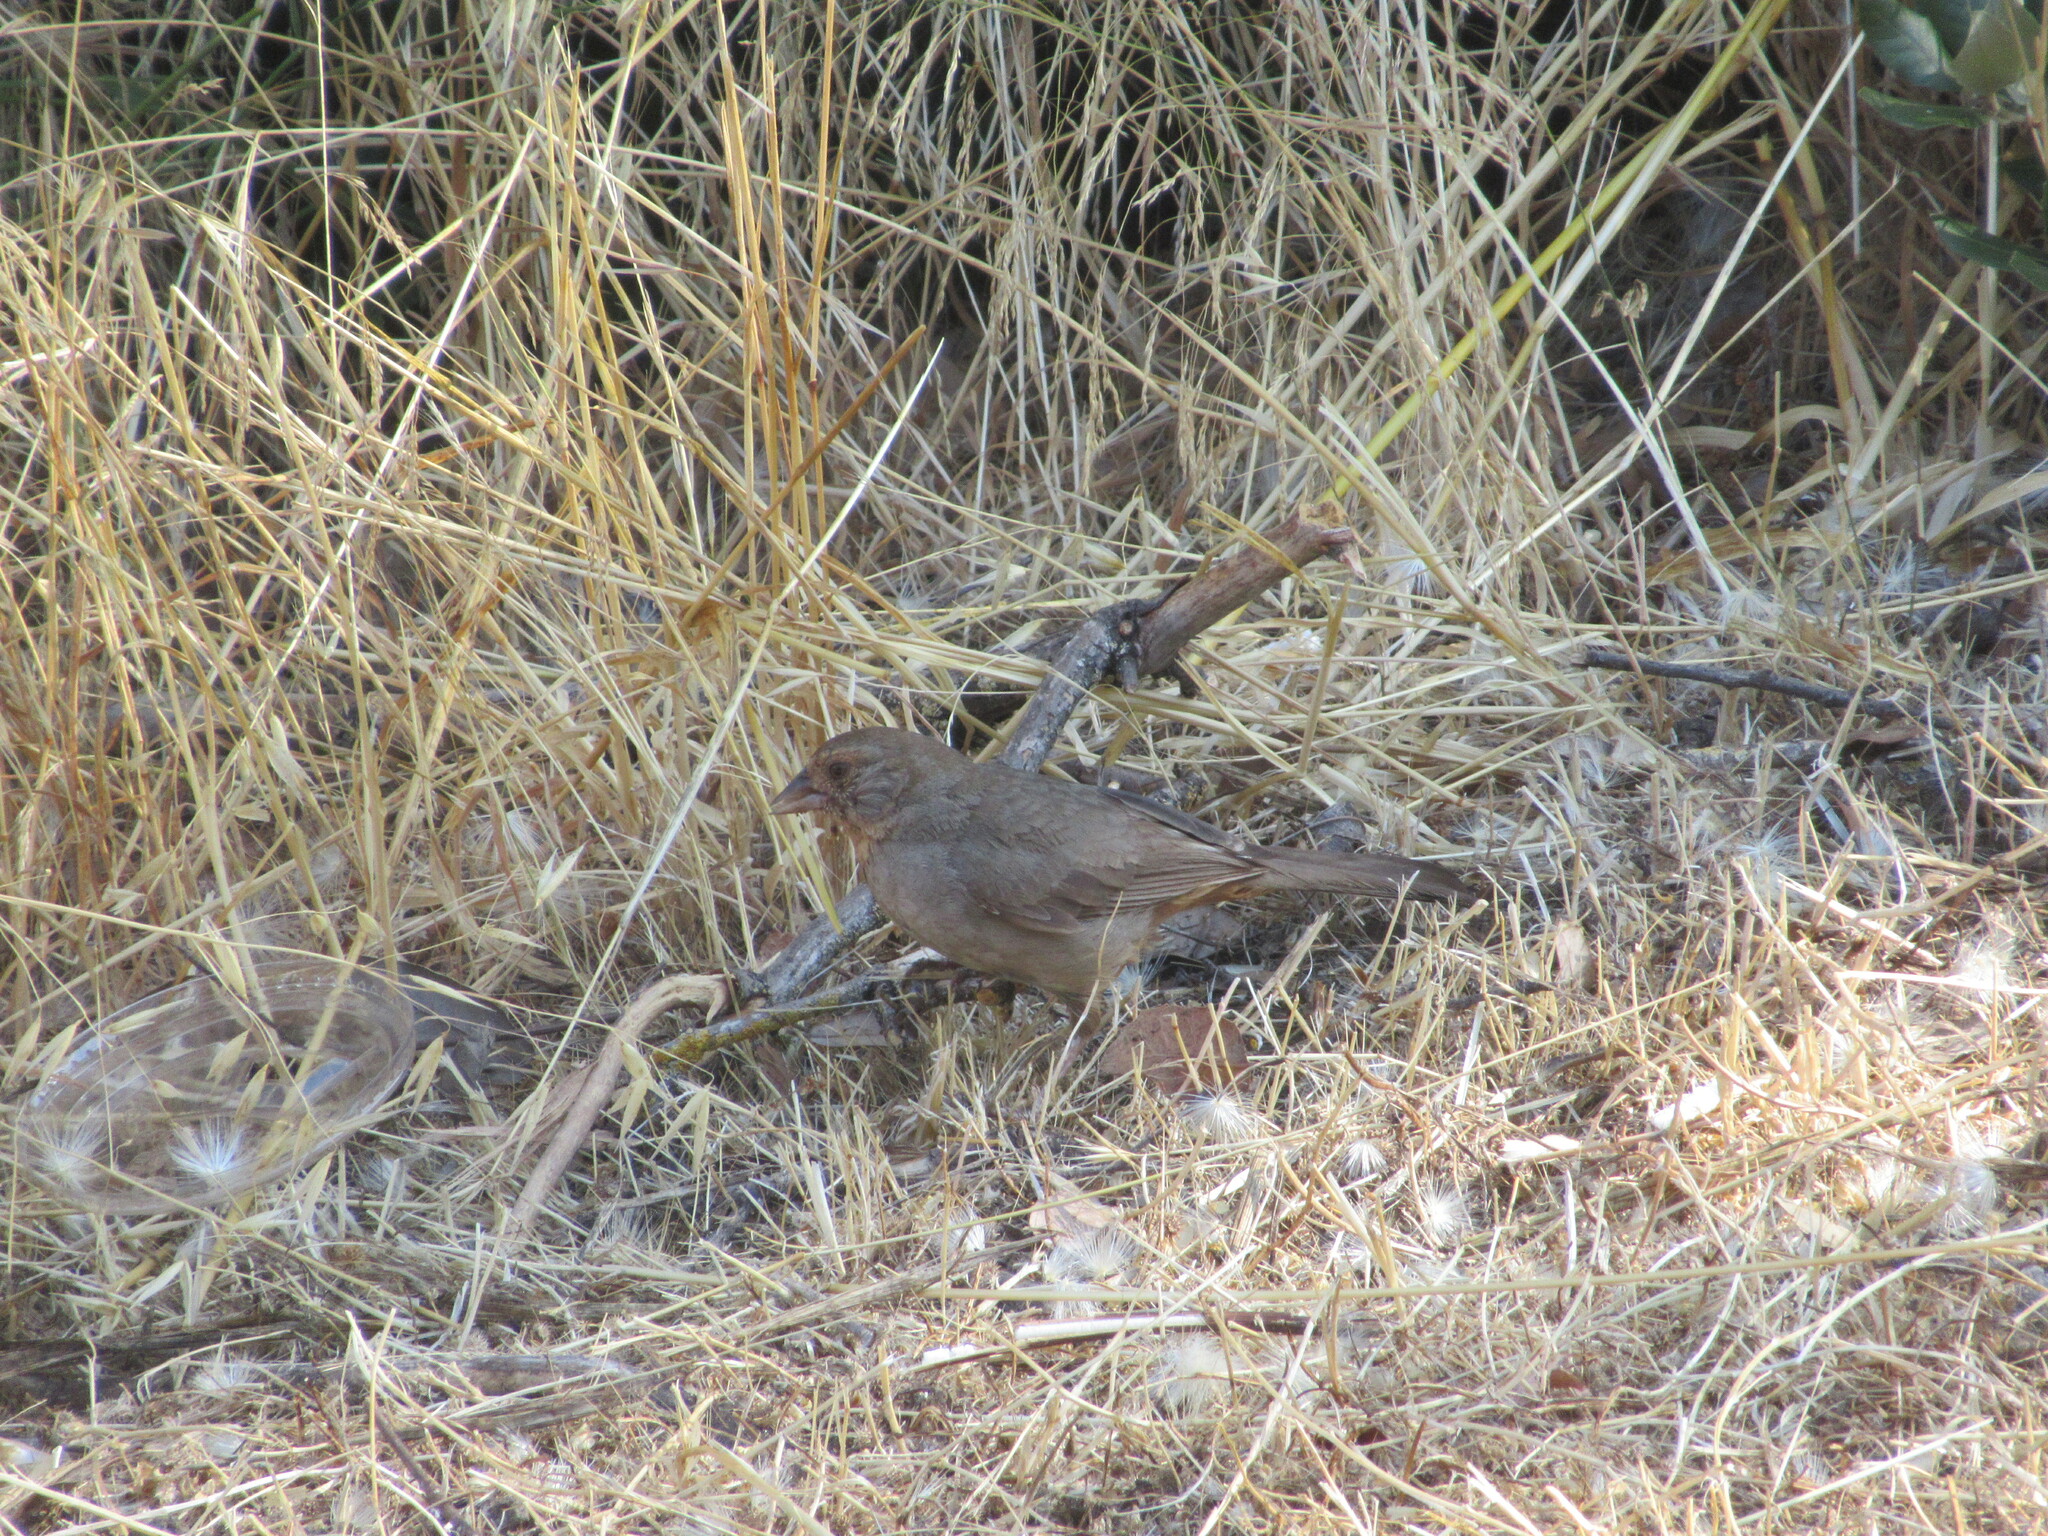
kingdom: Animalia
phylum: Chordata
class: Aves
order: Passeriformes
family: Passerellidae
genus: Melozone
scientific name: Melozone crissalis
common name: California towhee
